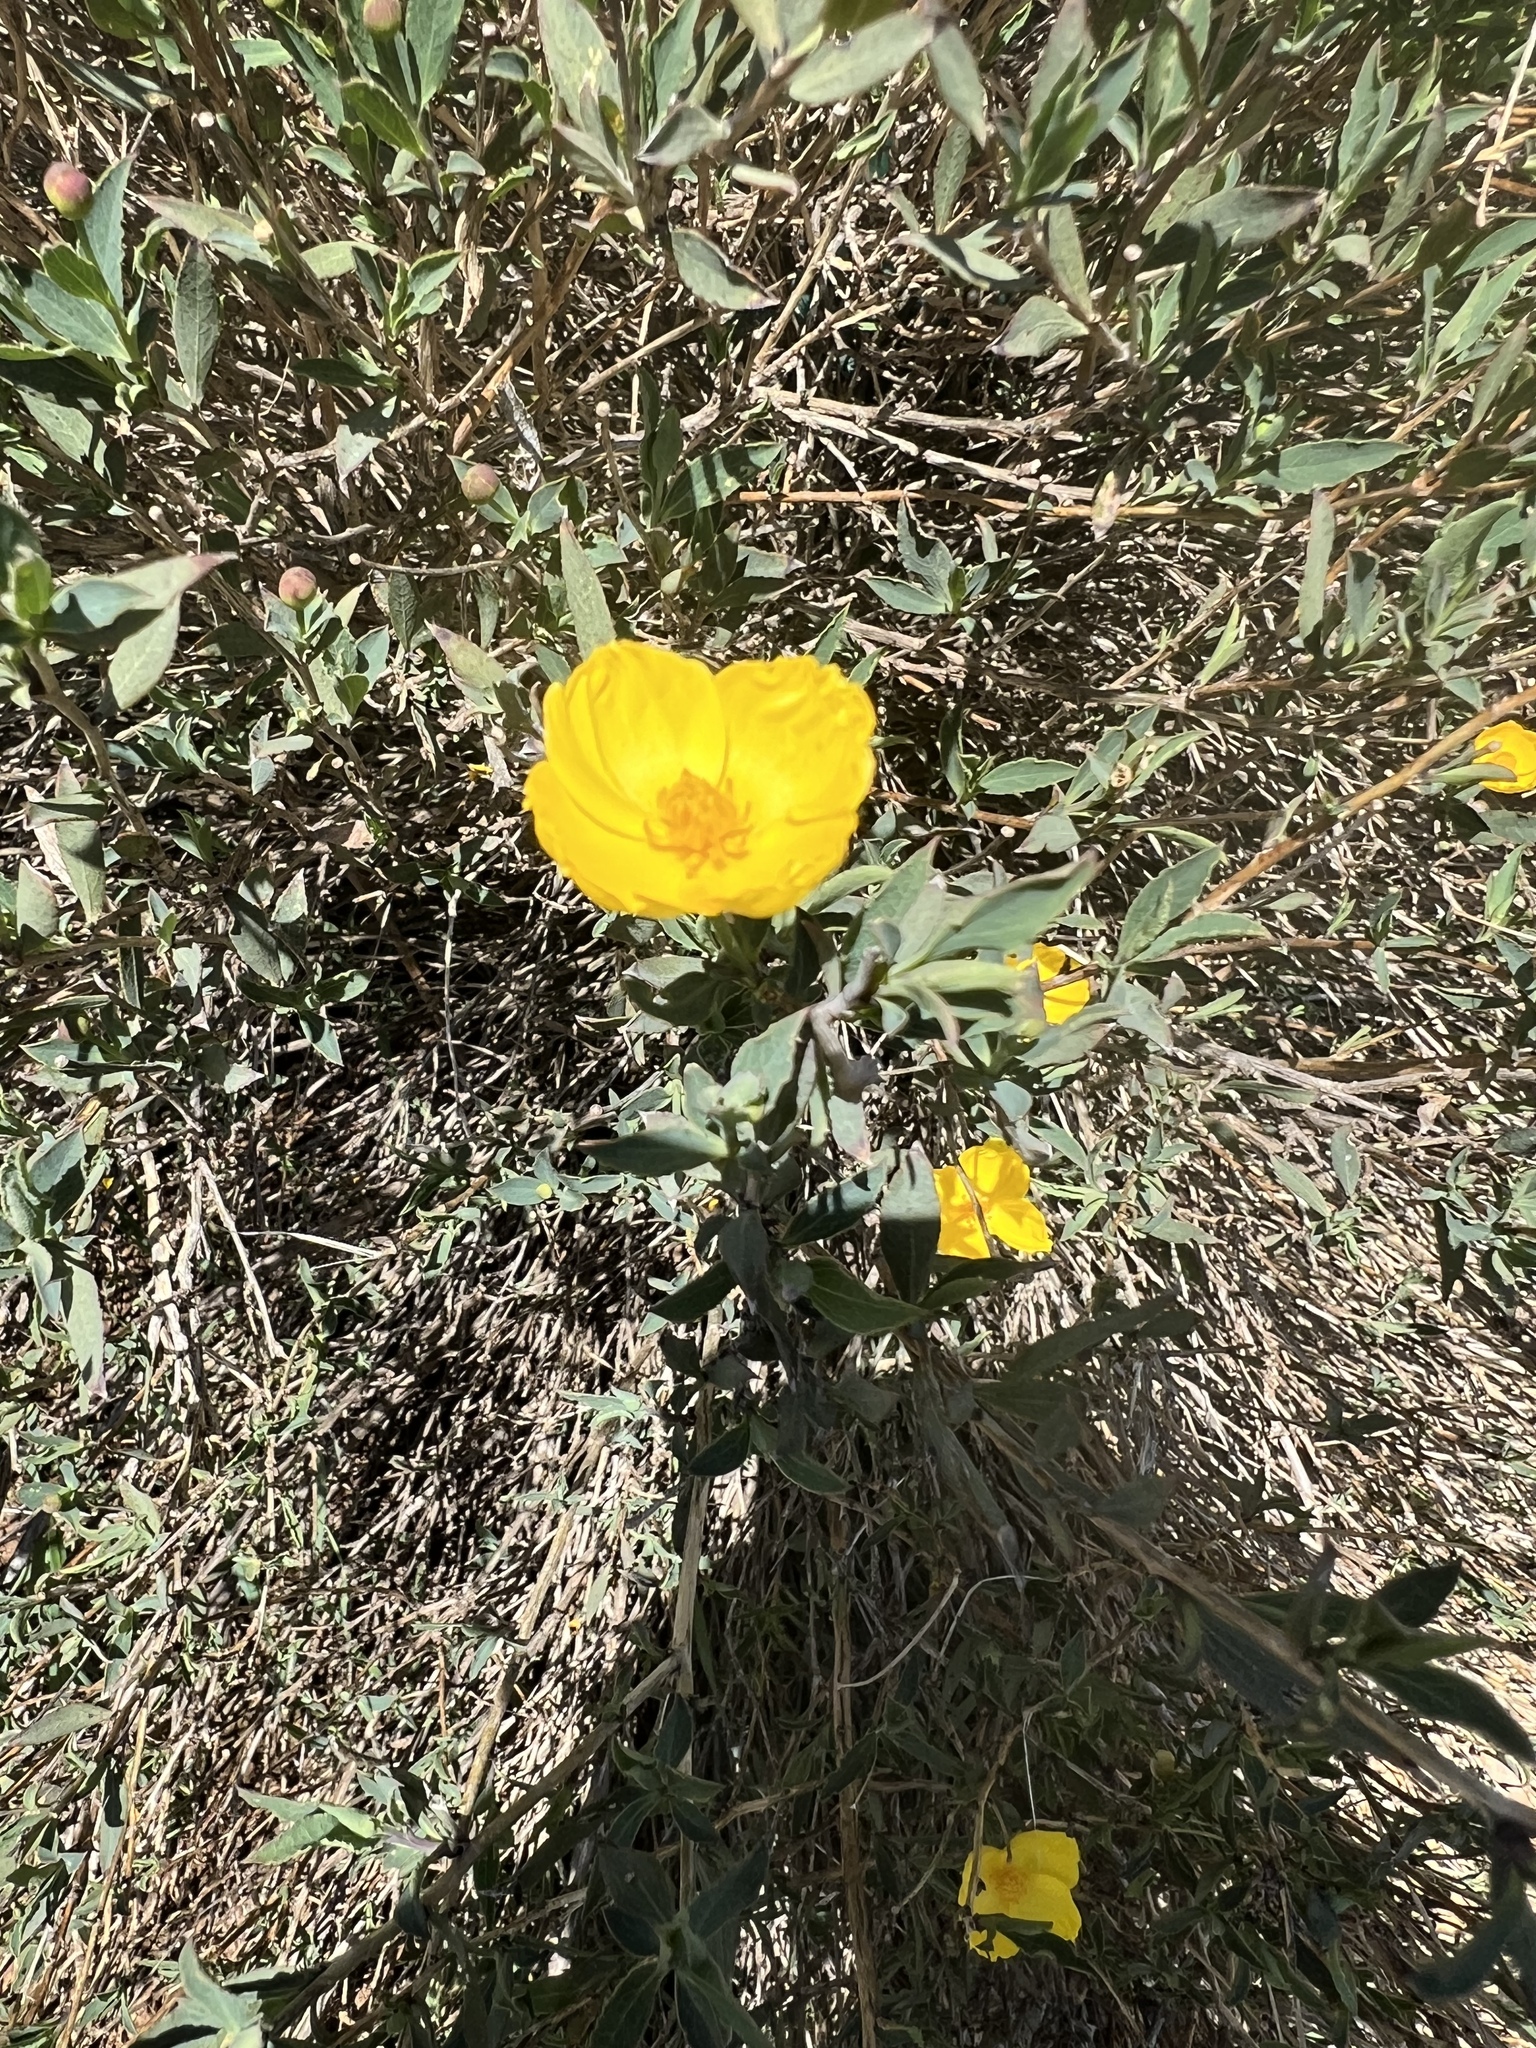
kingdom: Plantae
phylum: Tracheophyta
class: Magnoliopsida
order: Ranunculales
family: Papaveraceae
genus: Dendromecon
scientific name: Dendromecon rigida
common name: Tree poppy
